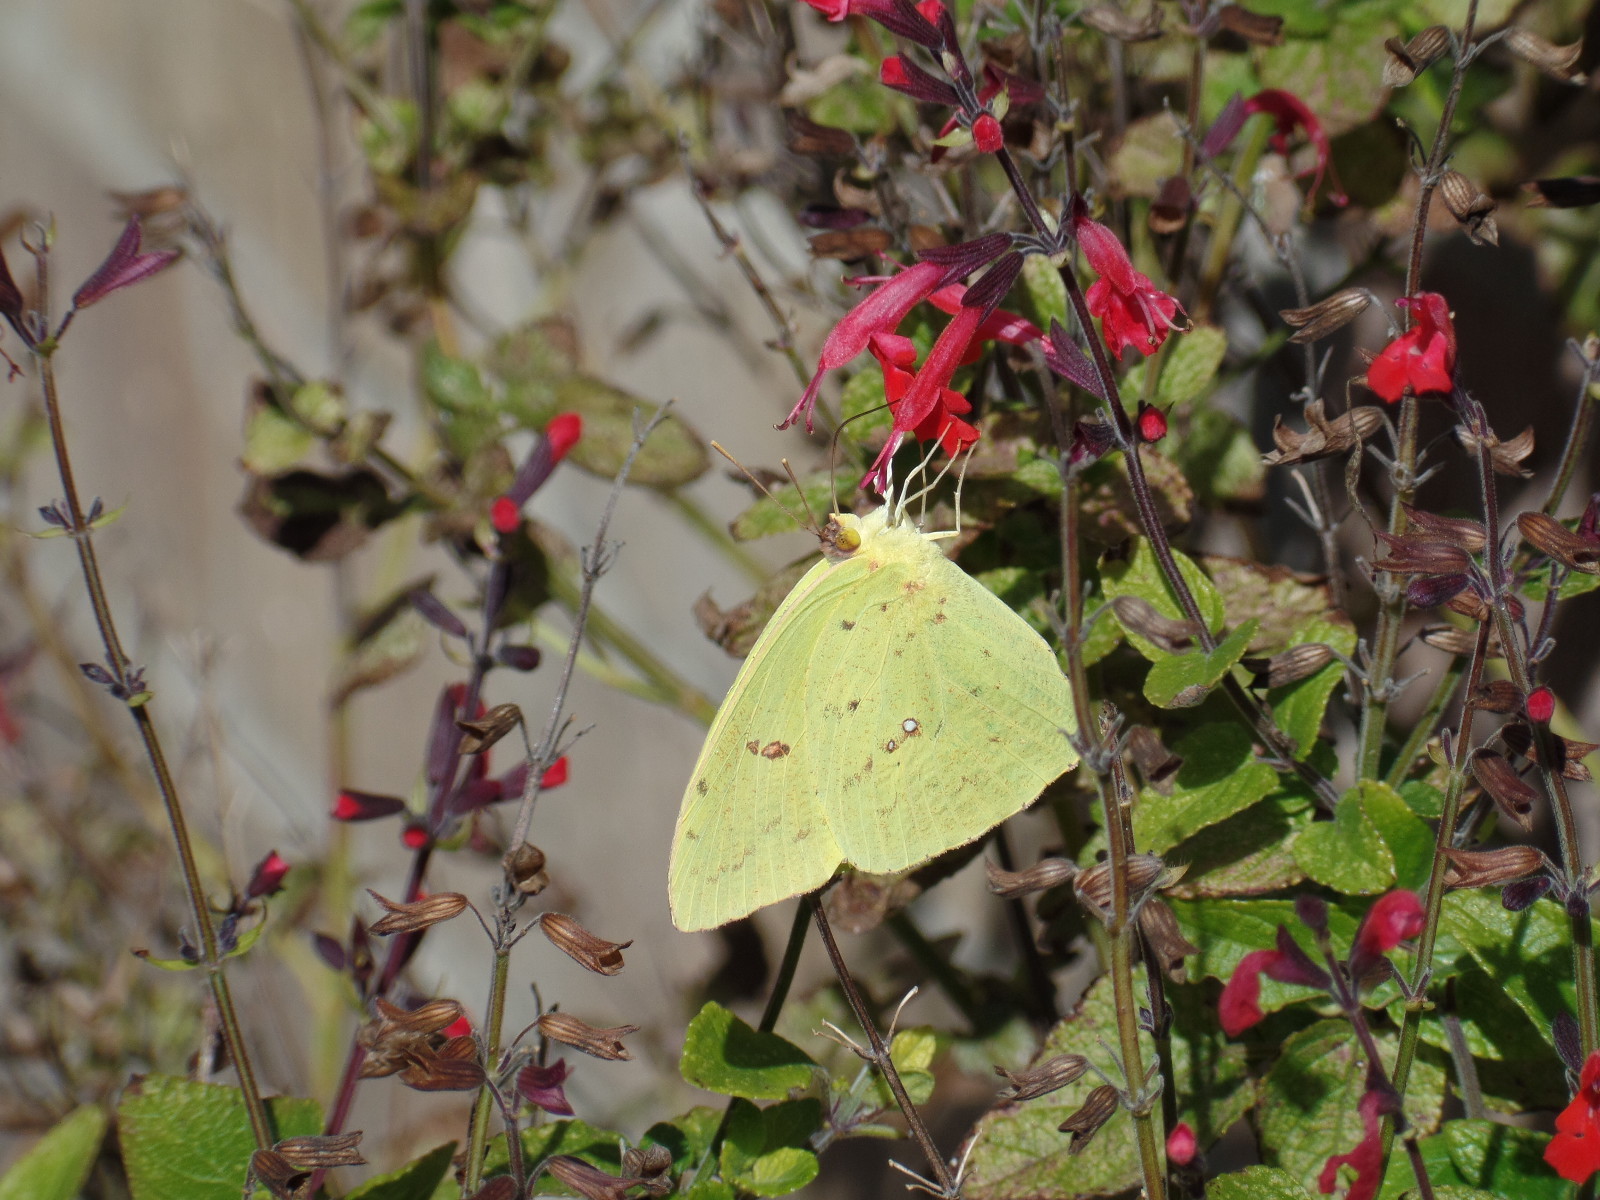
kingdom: Animalia
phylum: Arthropoda
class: Insecta
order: Lepidoptera
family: Pieridae
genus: Phoebis
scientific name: Phoebis sennae
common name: Cloudless sulphur
